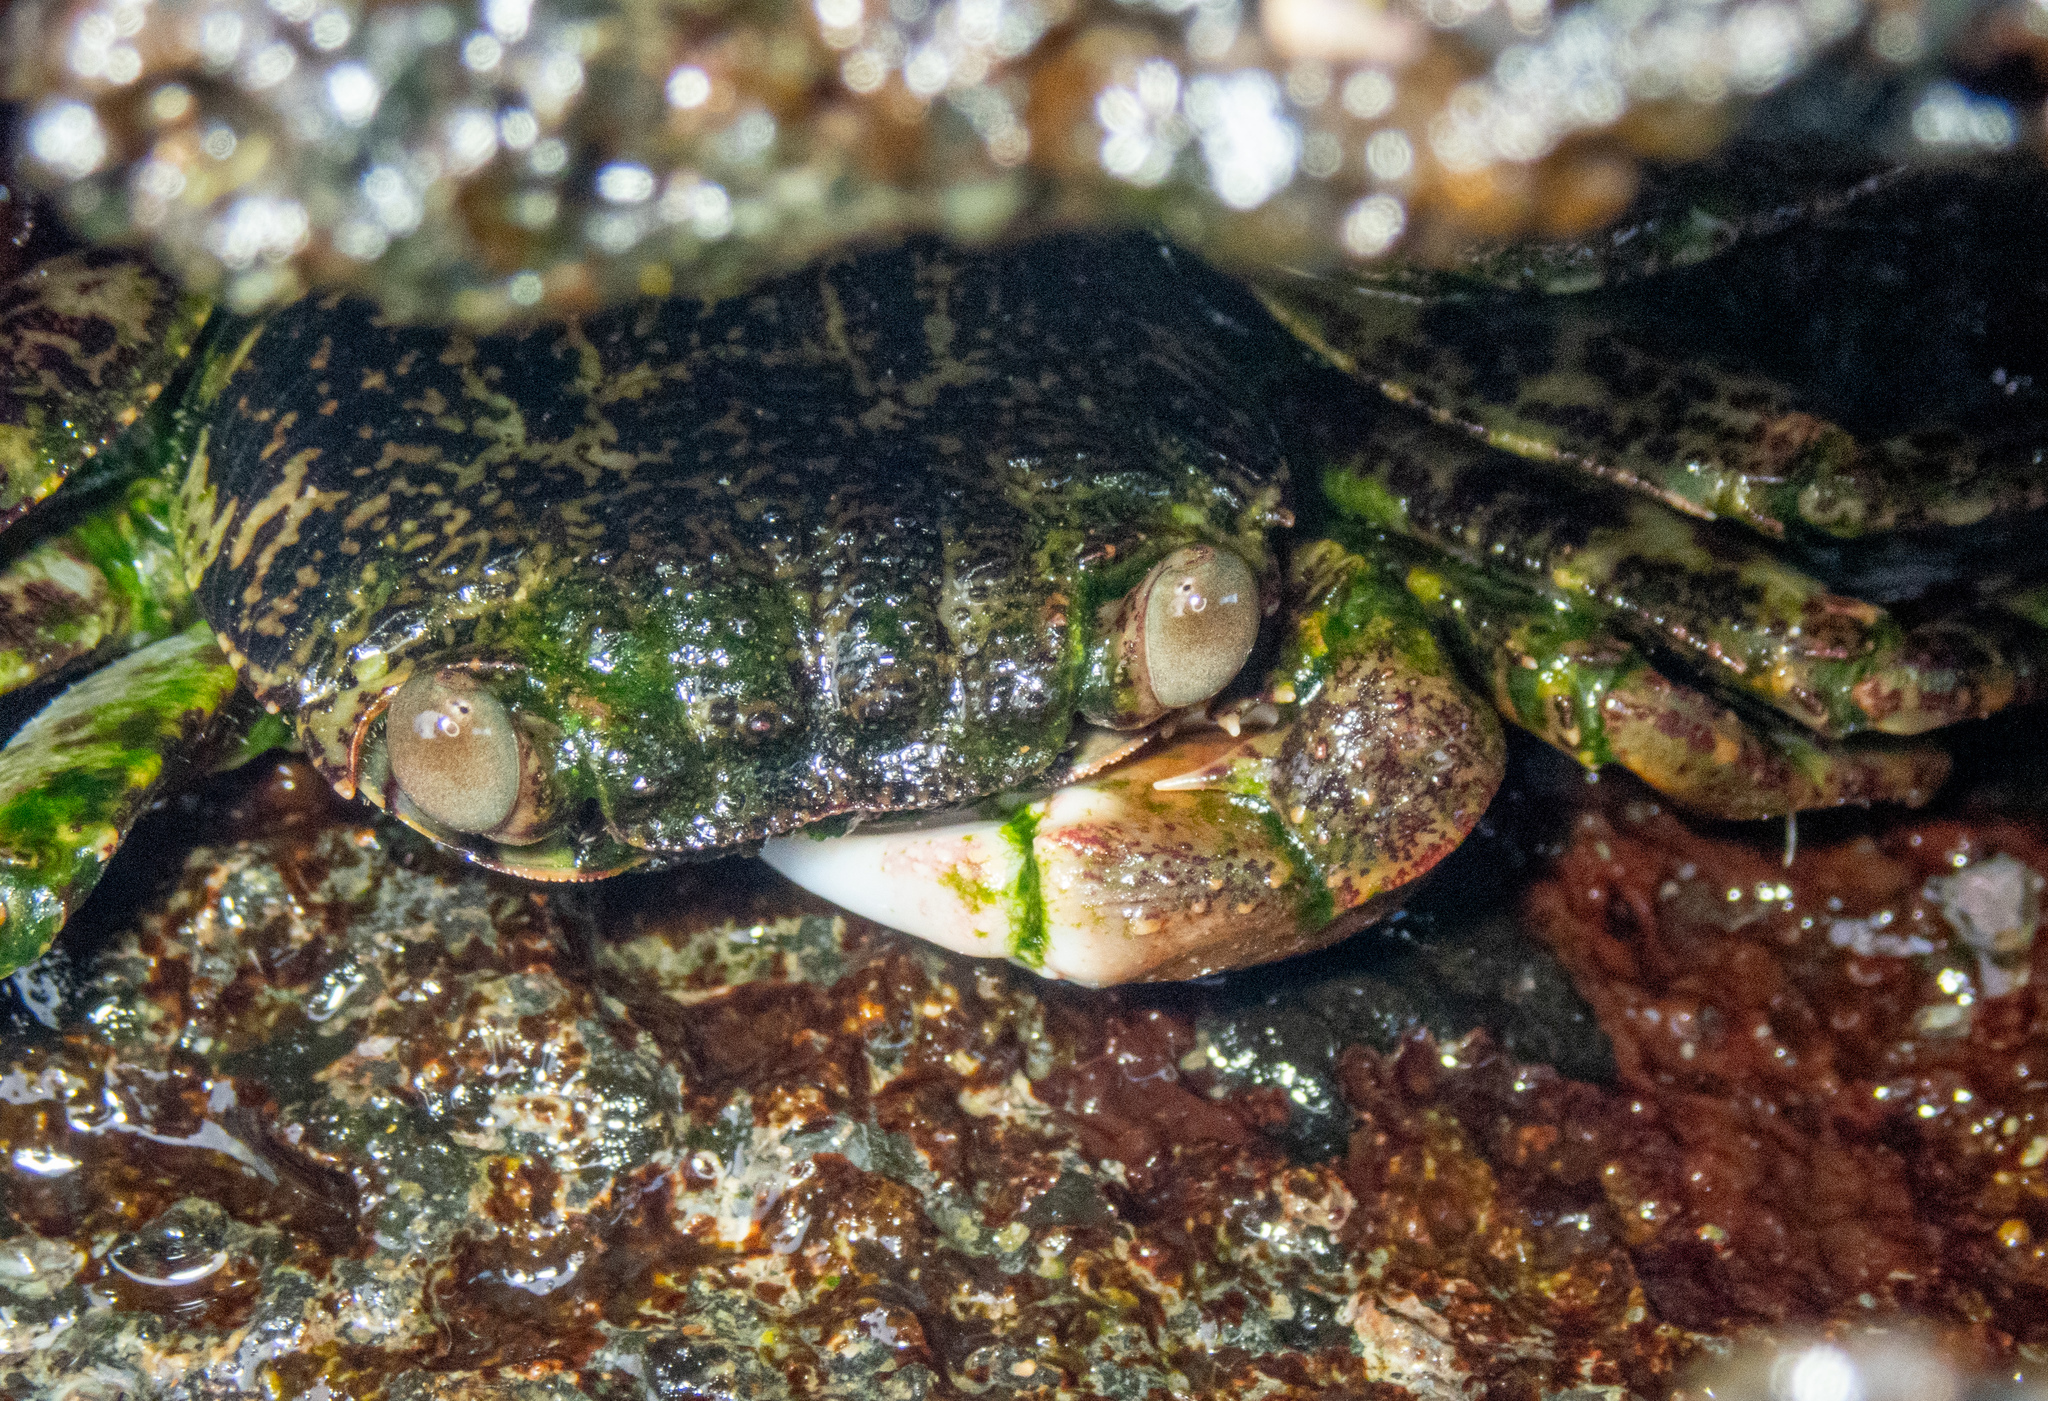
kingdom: Animalia
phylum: Arthropoda
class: Malacostraca
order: Decapoda
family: Grapsidae
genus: Grapsus
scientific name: Grapsus tenuicrustatus
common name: Natal lightfoot crab
